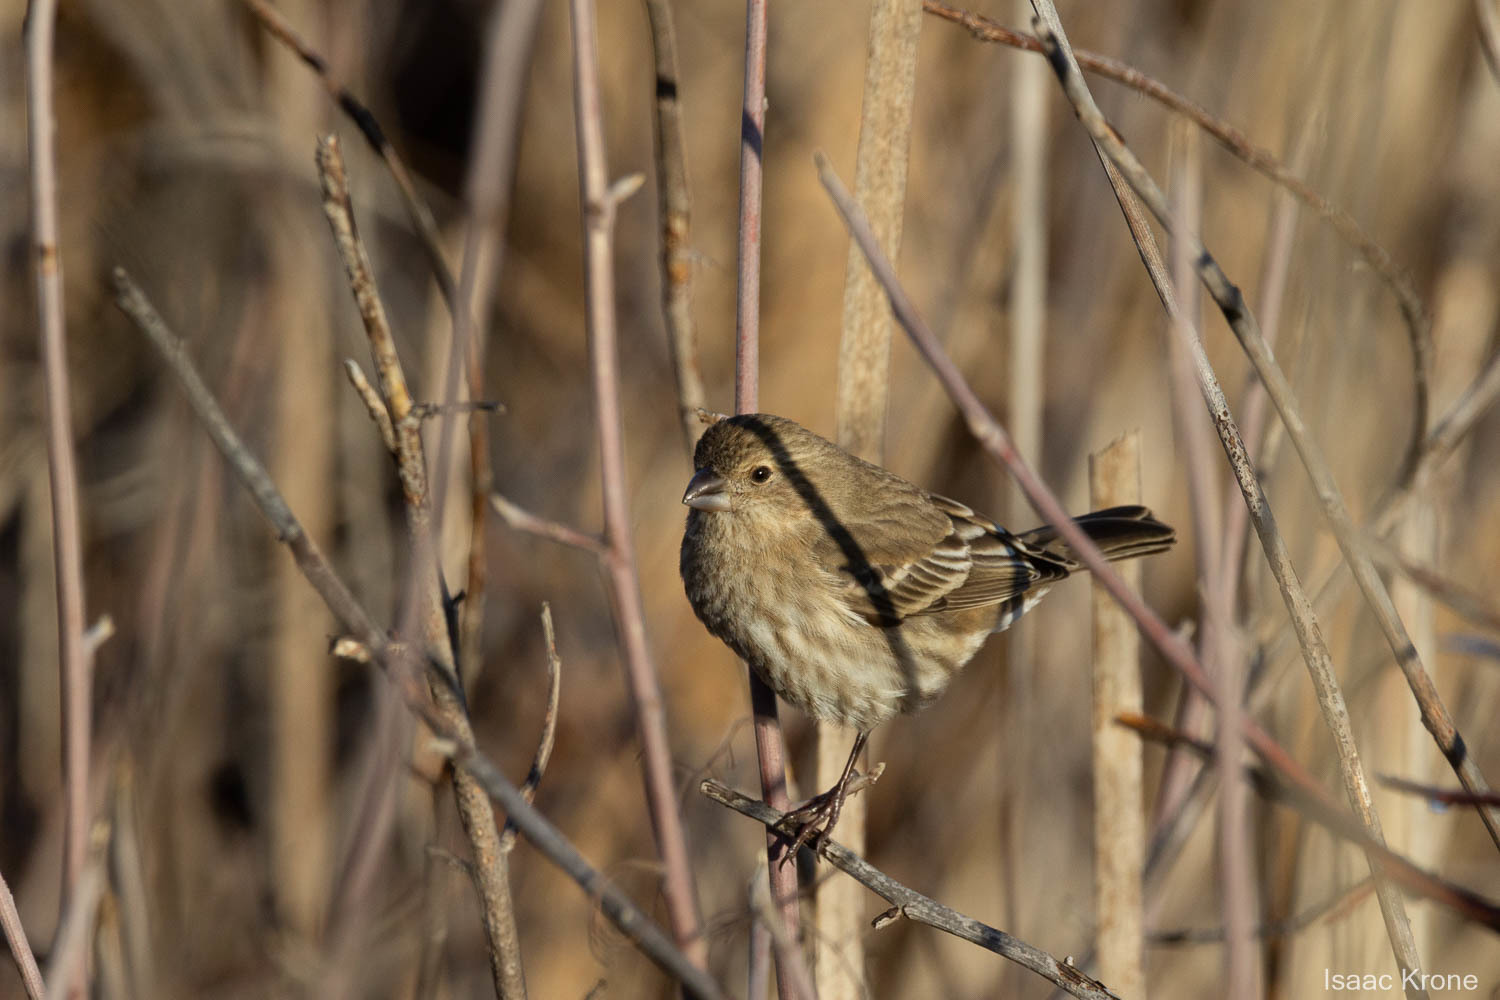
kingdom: Animalia
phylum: Chordata
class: Aves
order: Passeriformes
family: Fringillidae
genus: Haemorhous
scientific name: Haemorhous mexicanus
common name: House finch
